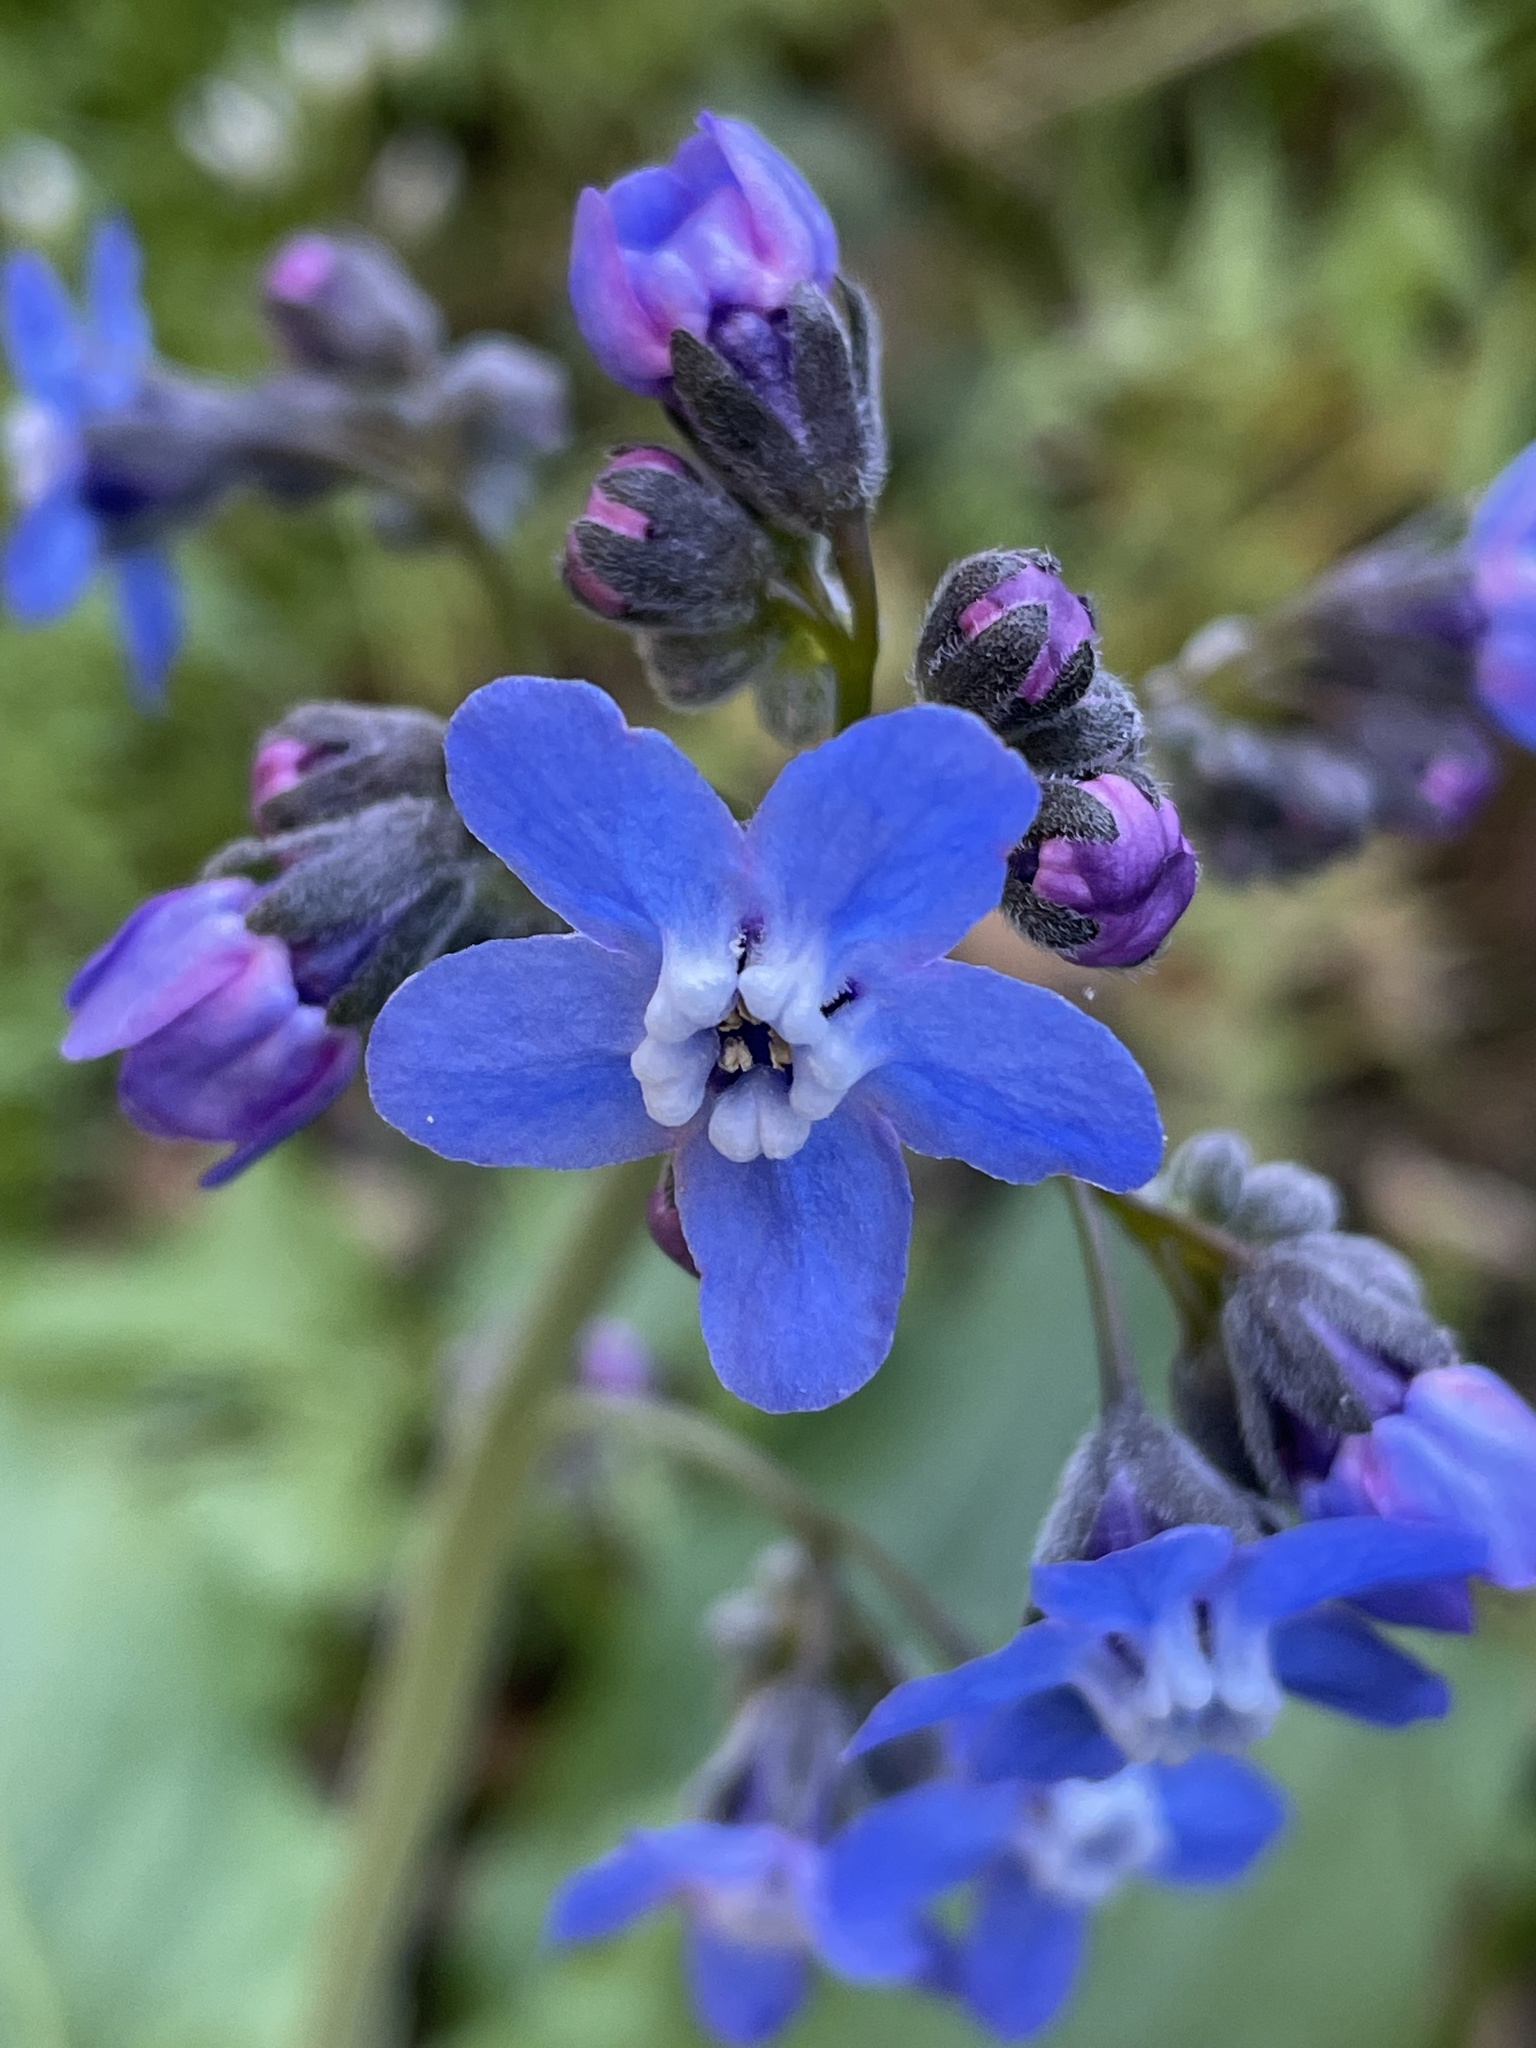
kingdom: Plantae
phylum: Tracheophyta
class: Magnoliopsida
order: Boraginales
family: Boraginaceae
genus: Adelinia
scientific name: Adelinia grande
